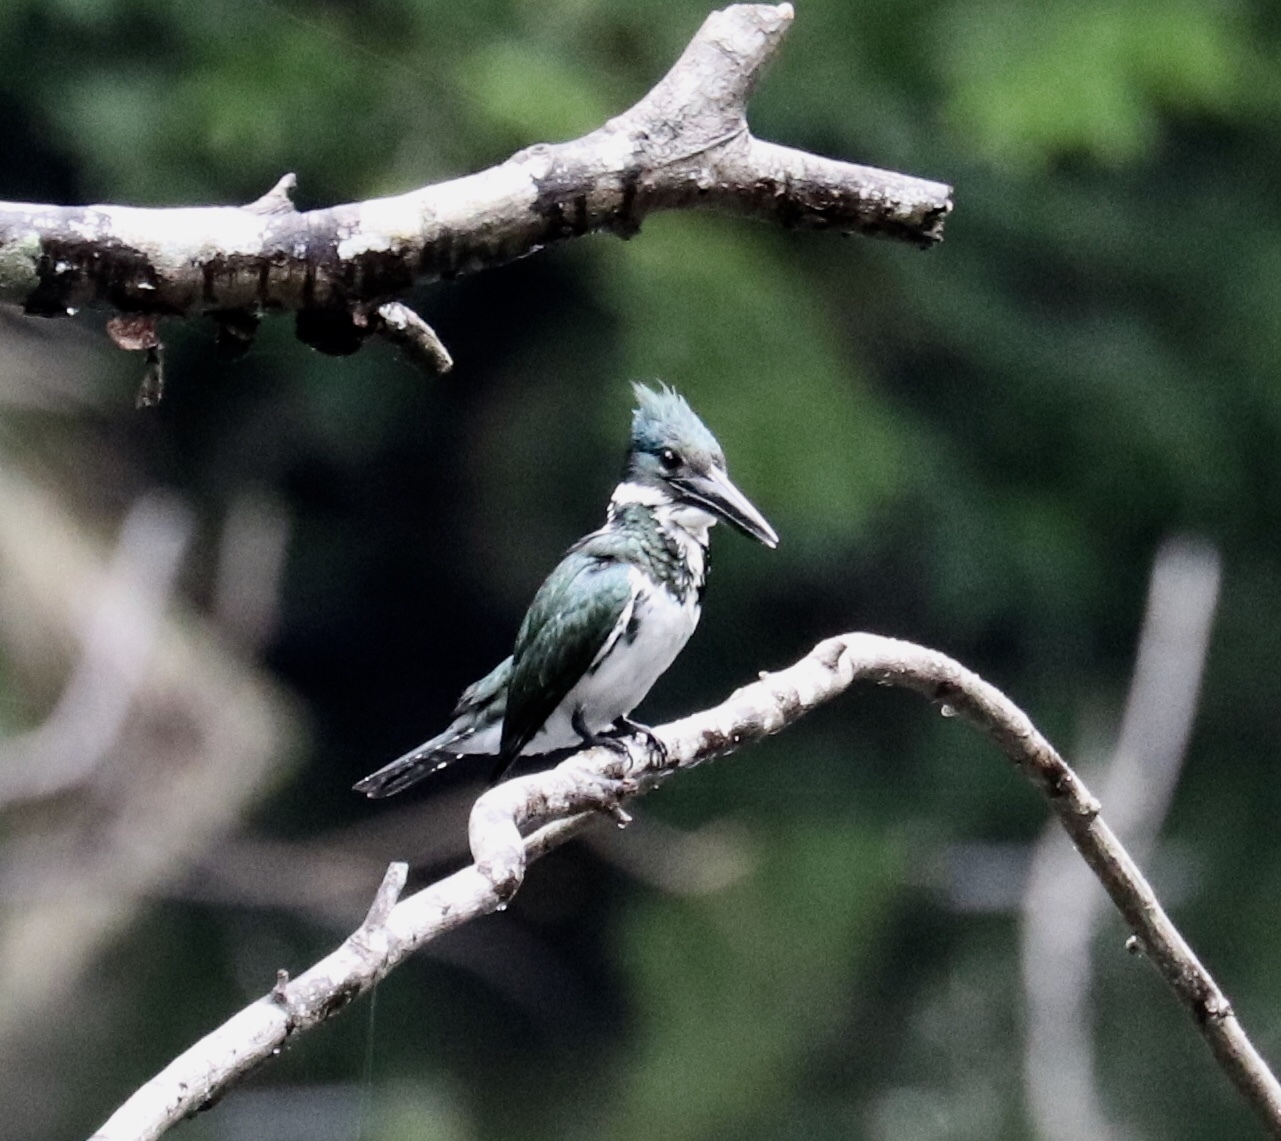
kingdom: Animalia
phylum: Chordata
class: Aves
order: Coraciiformes
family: Alcedinidae
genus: Chloroceryle
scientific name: Chloroceryle amazona
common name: Amazon kingfisher
